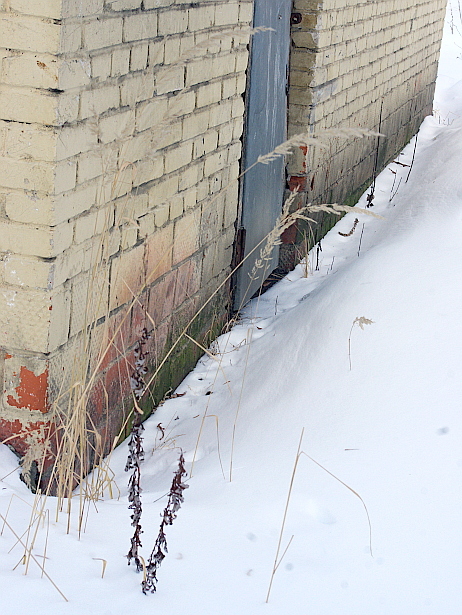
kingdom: Plantae
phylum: Tracheophyta
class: Liliopsida
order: Poales
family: Poaceae
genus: Calamagrostis
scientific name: Calamagrostis epigejos
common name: Wood small-reed
